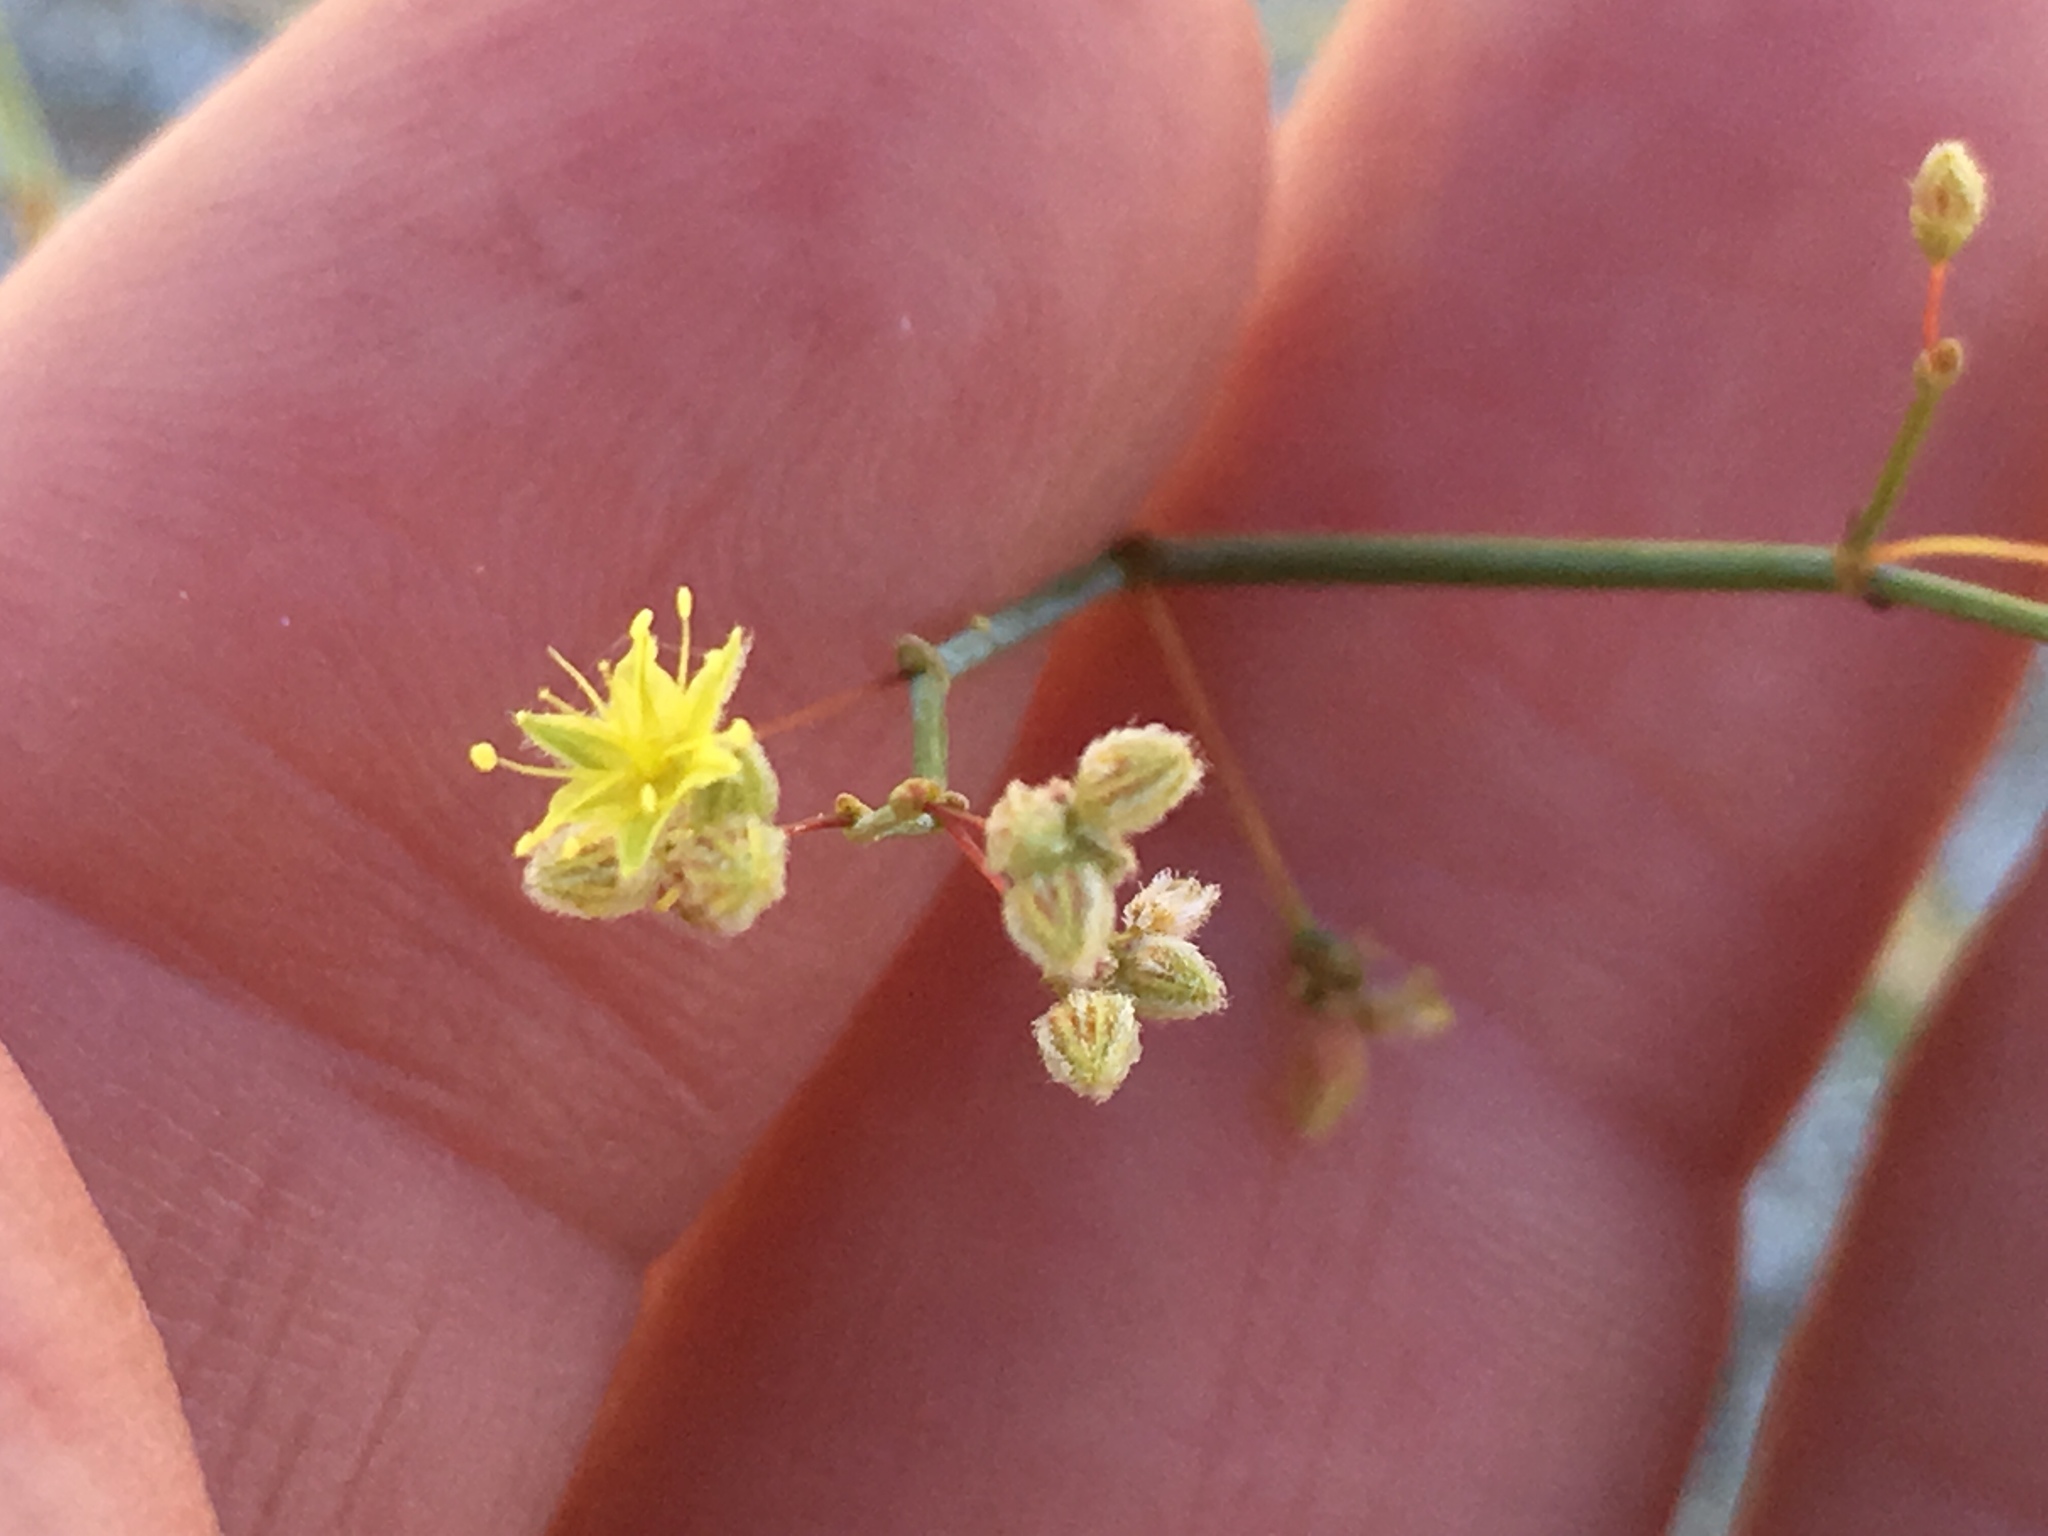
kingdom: Plantae
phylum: Tracheophyta
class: Magnoliopsida
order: Caryophyllales
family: Polygonaceae
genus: Eriogonum
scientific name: Eriogonum inflatum
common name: Desert trumpet
